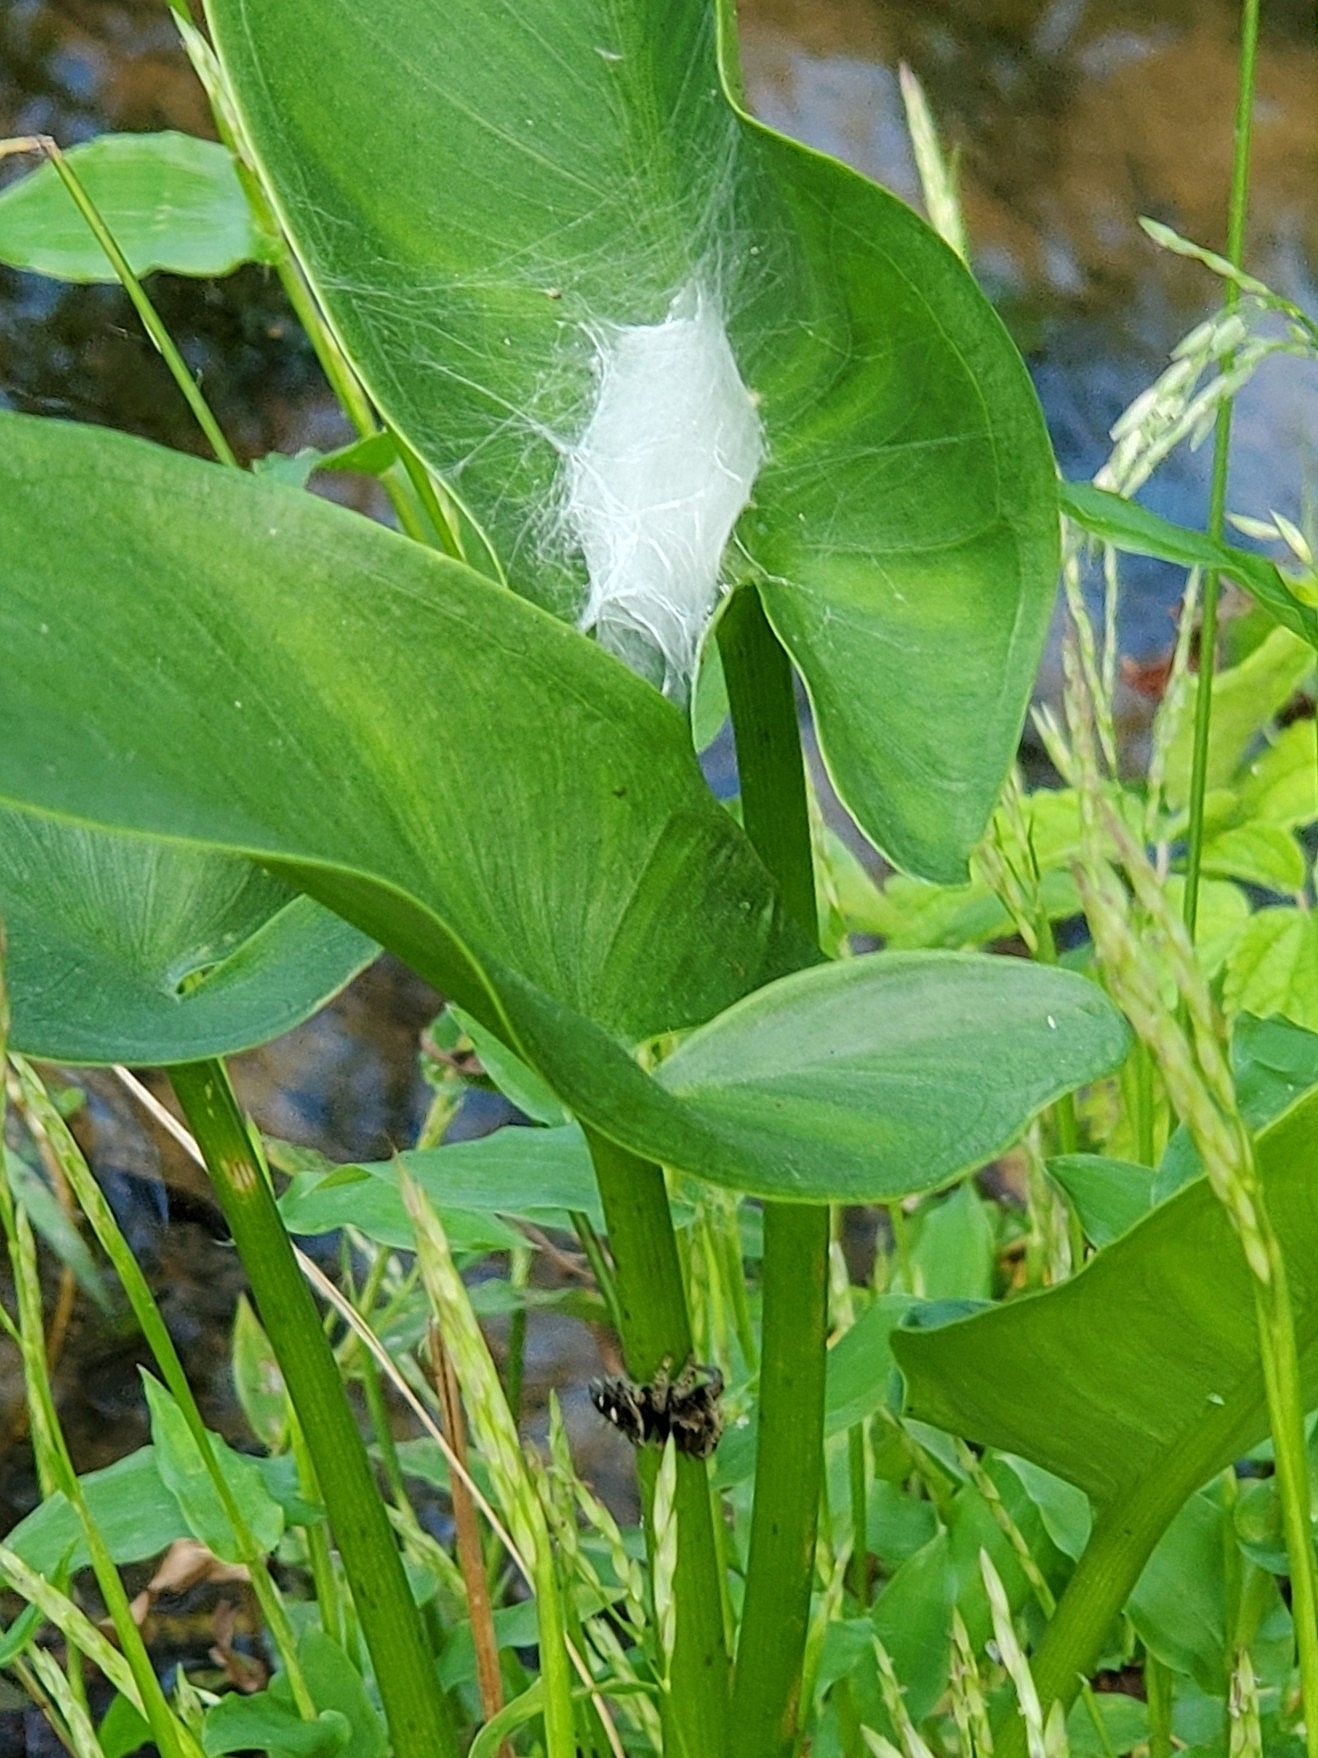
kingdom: Animalia
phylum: Arthropoda
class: Arachnida
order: Araneae
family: Salticidae
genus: Phidippus
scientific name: Phidippus audax
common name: Bold jumper
